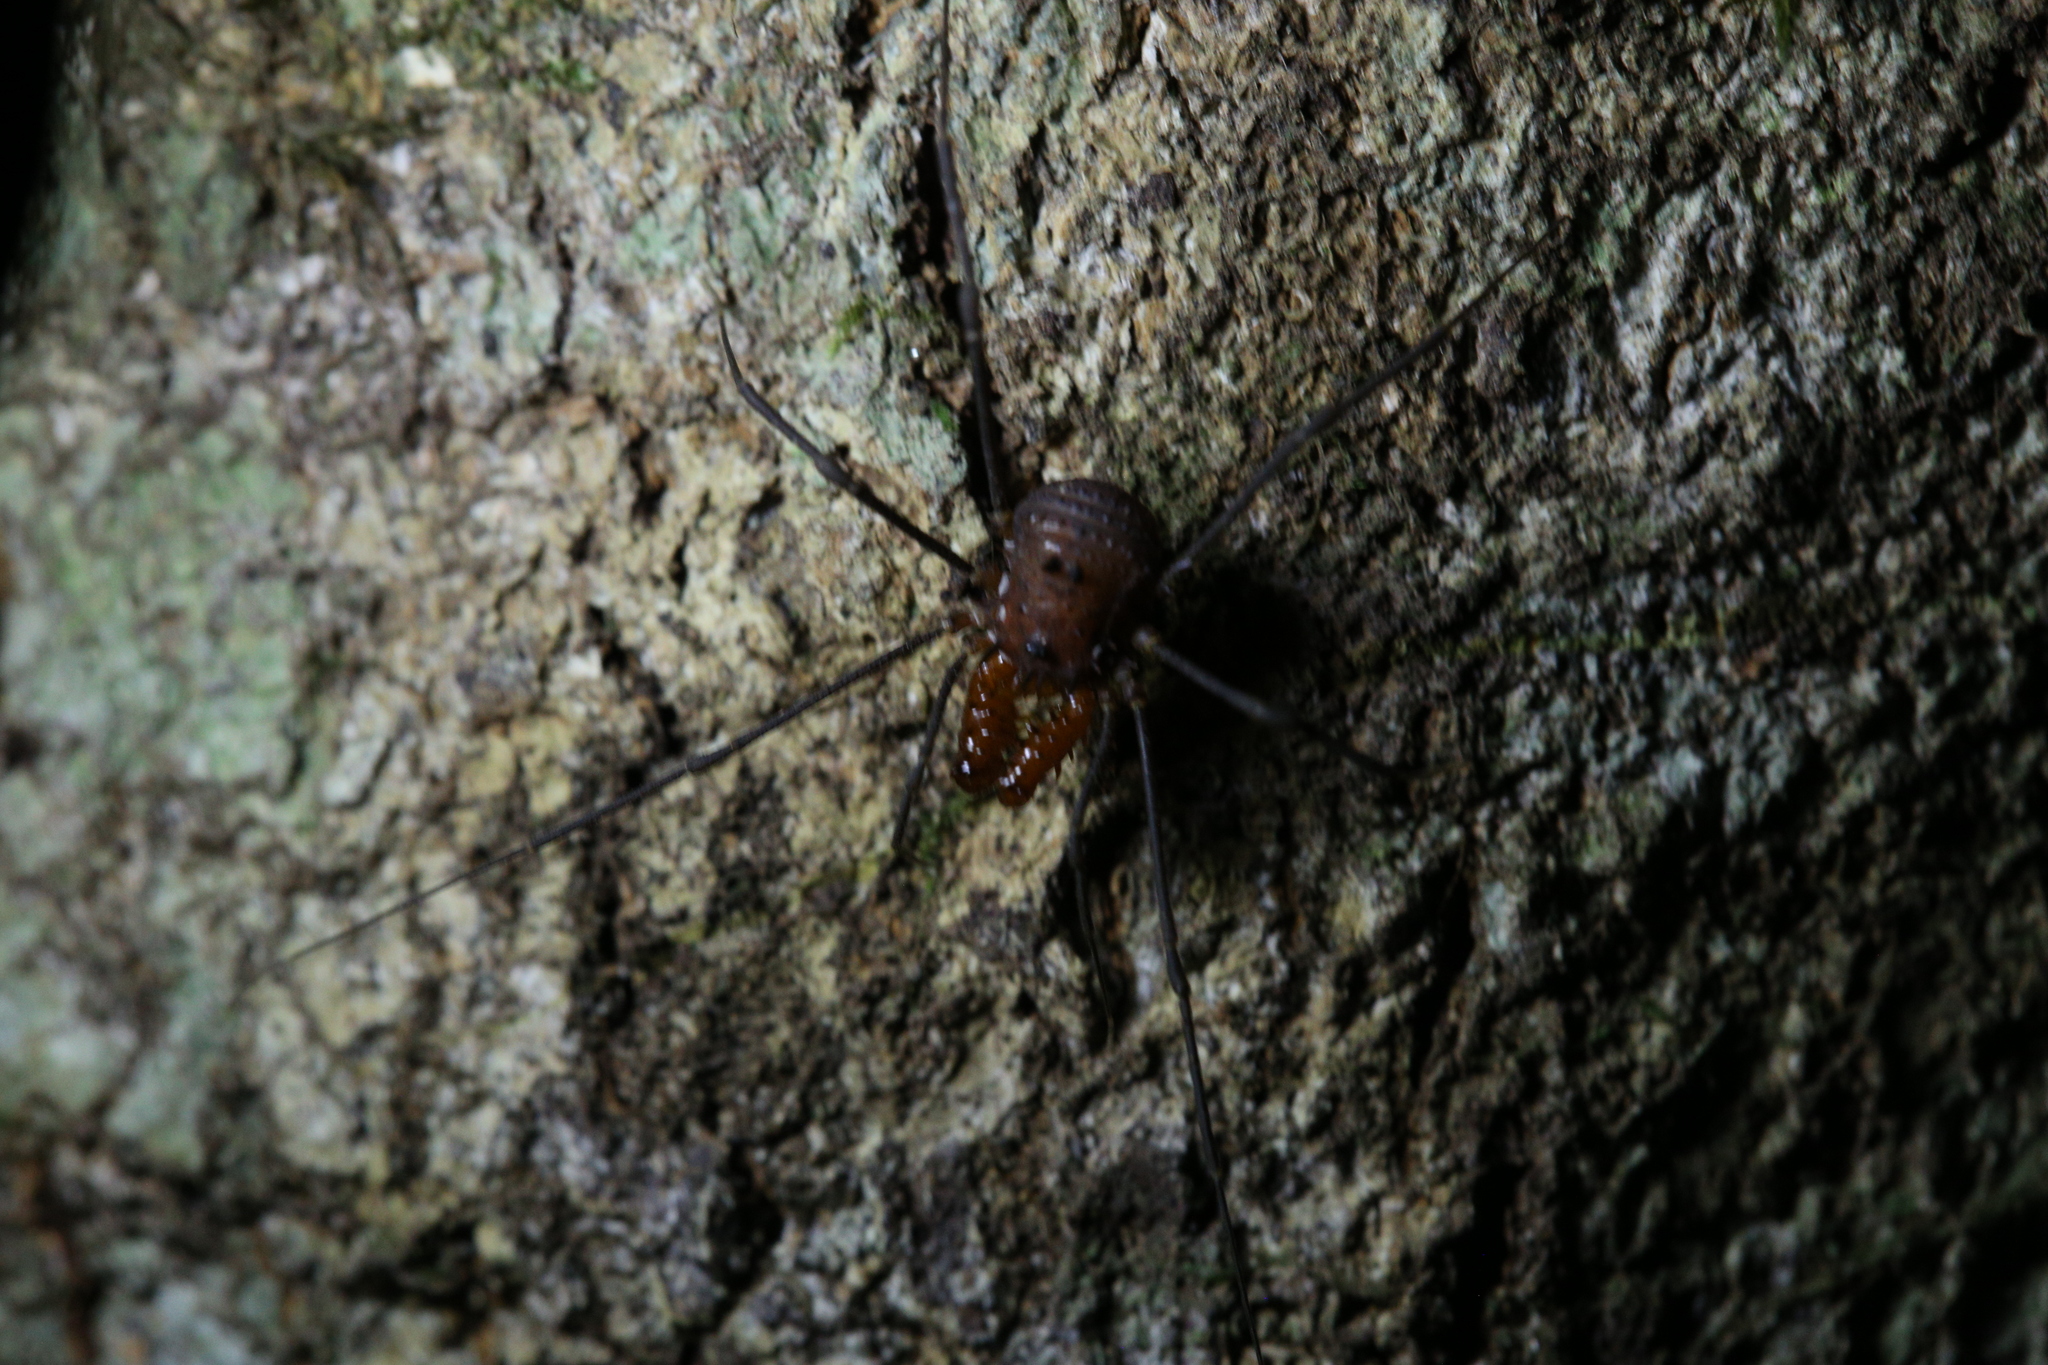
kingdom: Animalia
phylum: Arthropoda
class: Arachnida
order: Opiliones
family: Triaenonychidae
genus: Heteronuncia
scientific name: Heteronuncia robusta
